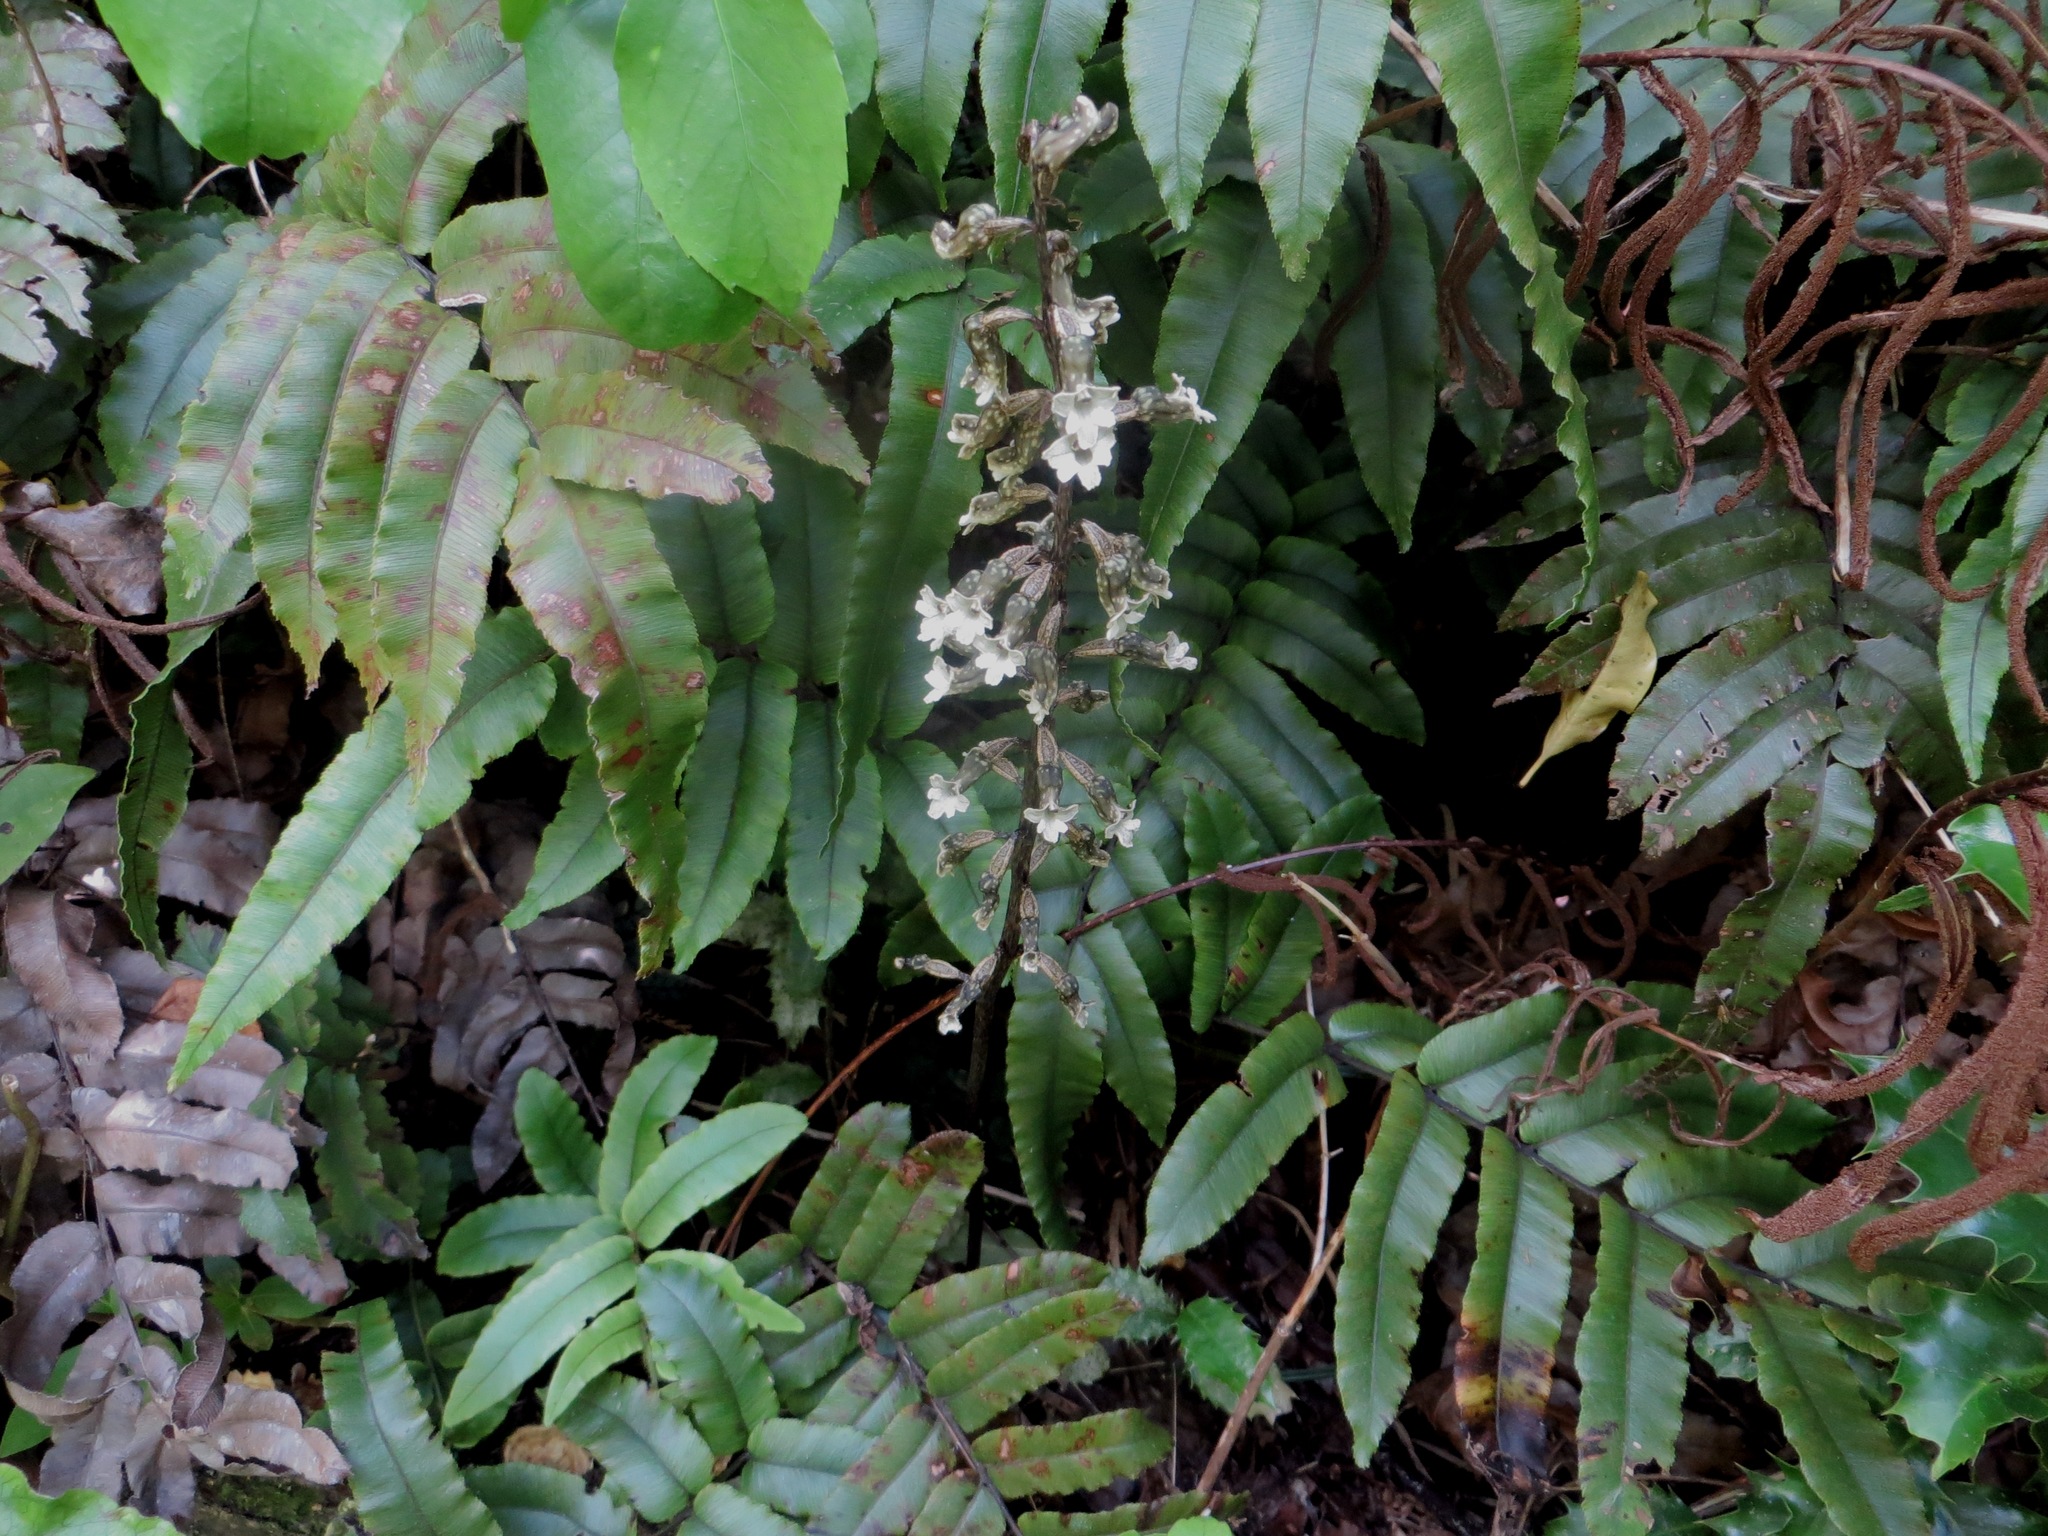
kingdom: Plantae
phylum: Tracheophyta
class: Liliopsida
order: Asparagales
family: Orchidaceae
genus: Gastrodia
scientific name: Gastrodia cunninghamii
